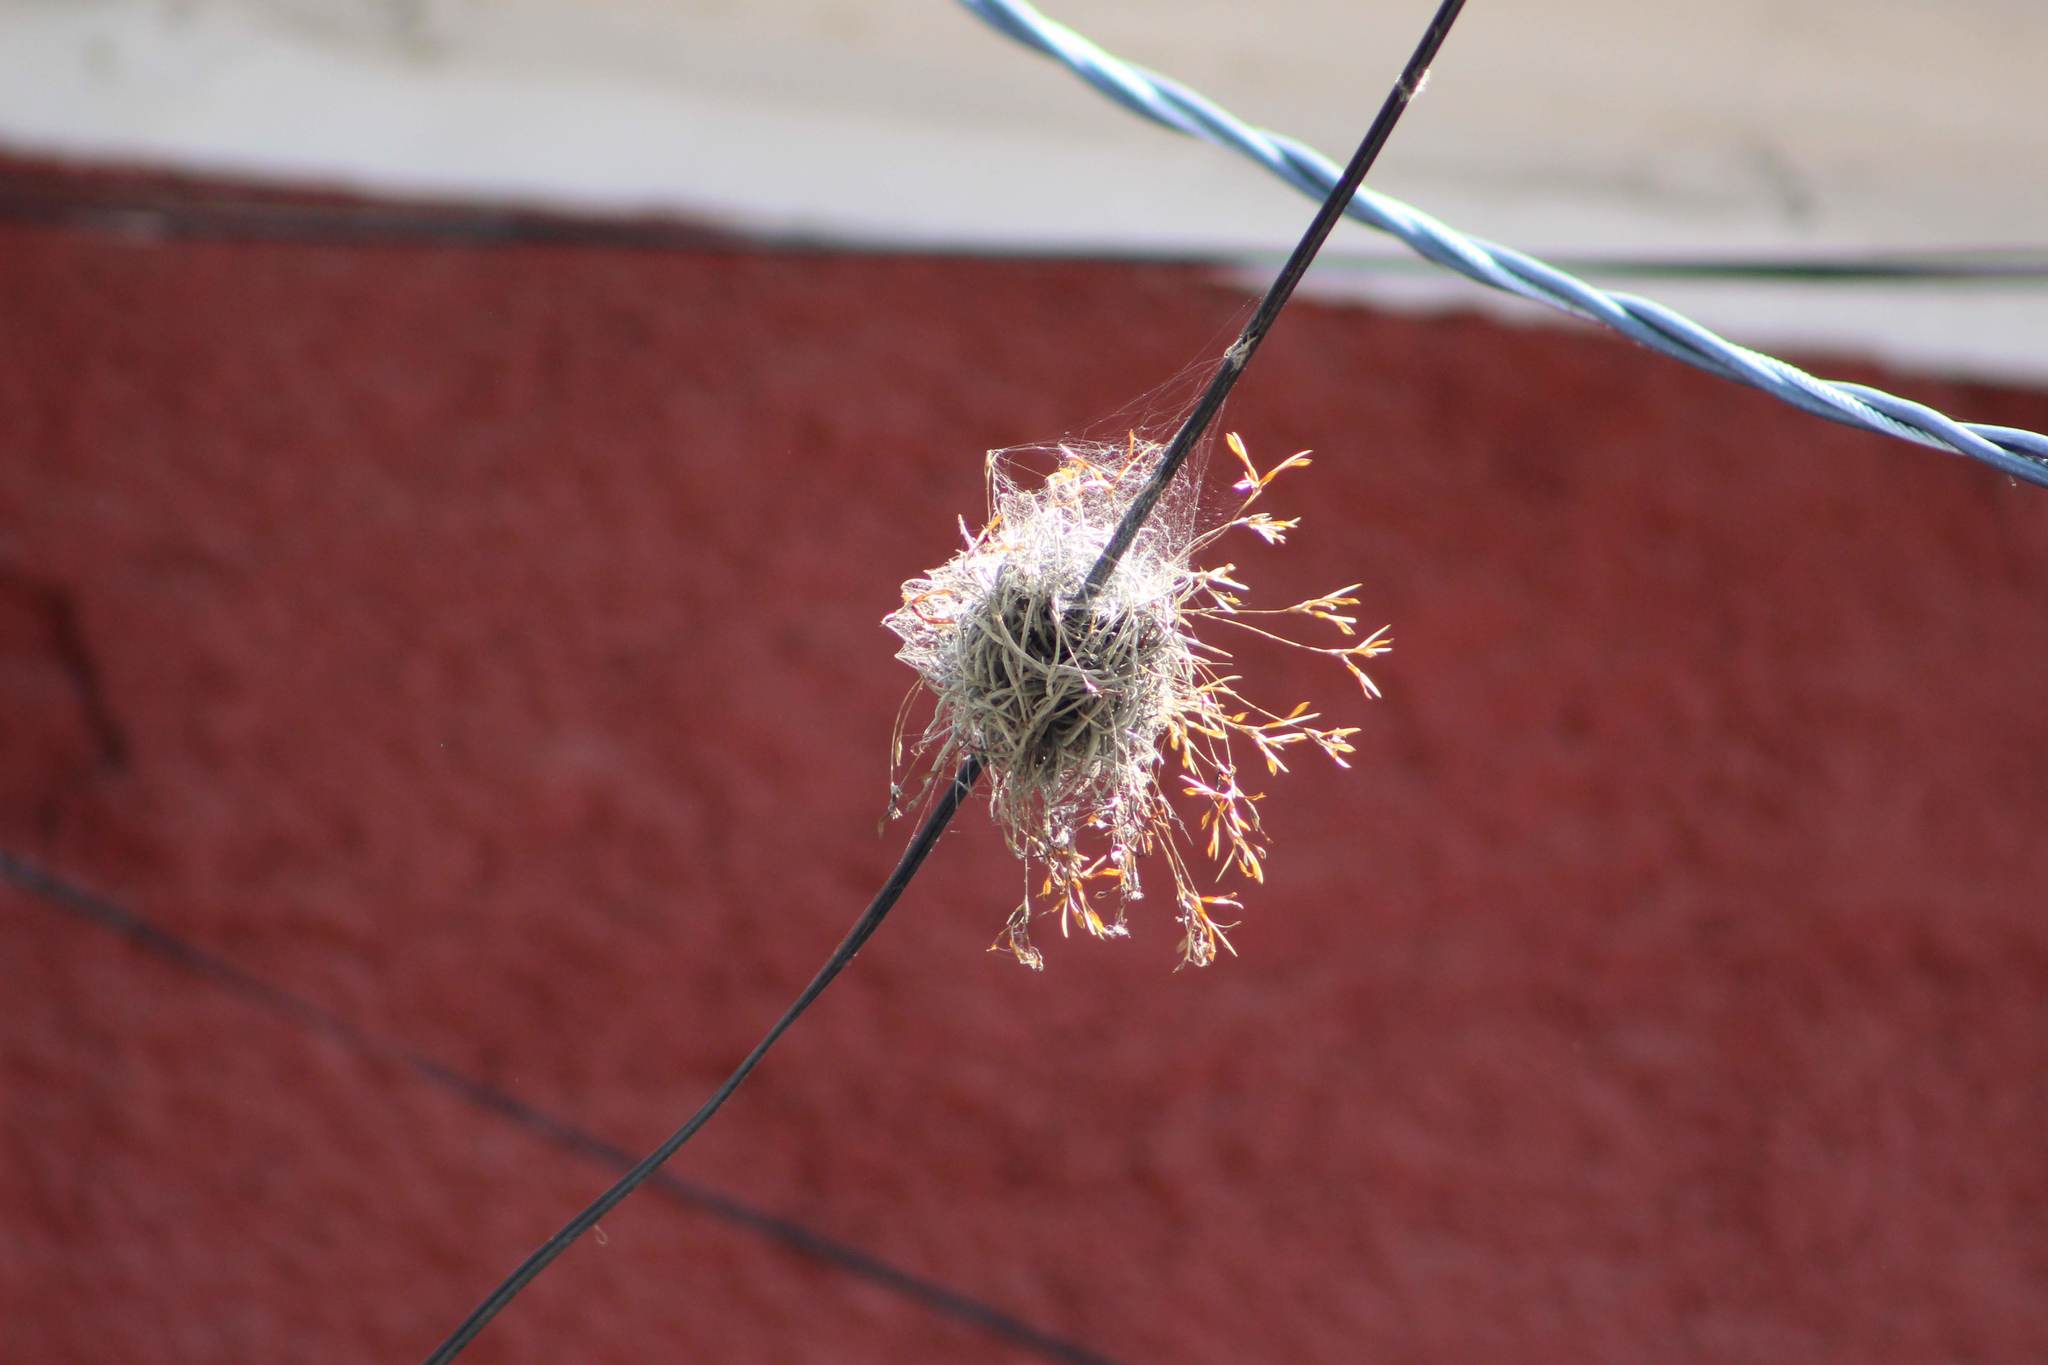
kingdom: Plantae
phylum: Tracheophyta
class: Liliopsida
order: Poales
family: Bromeliaceae
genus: Tillandsia
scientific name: Tillandsia recurvata
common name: Small ballmoss
